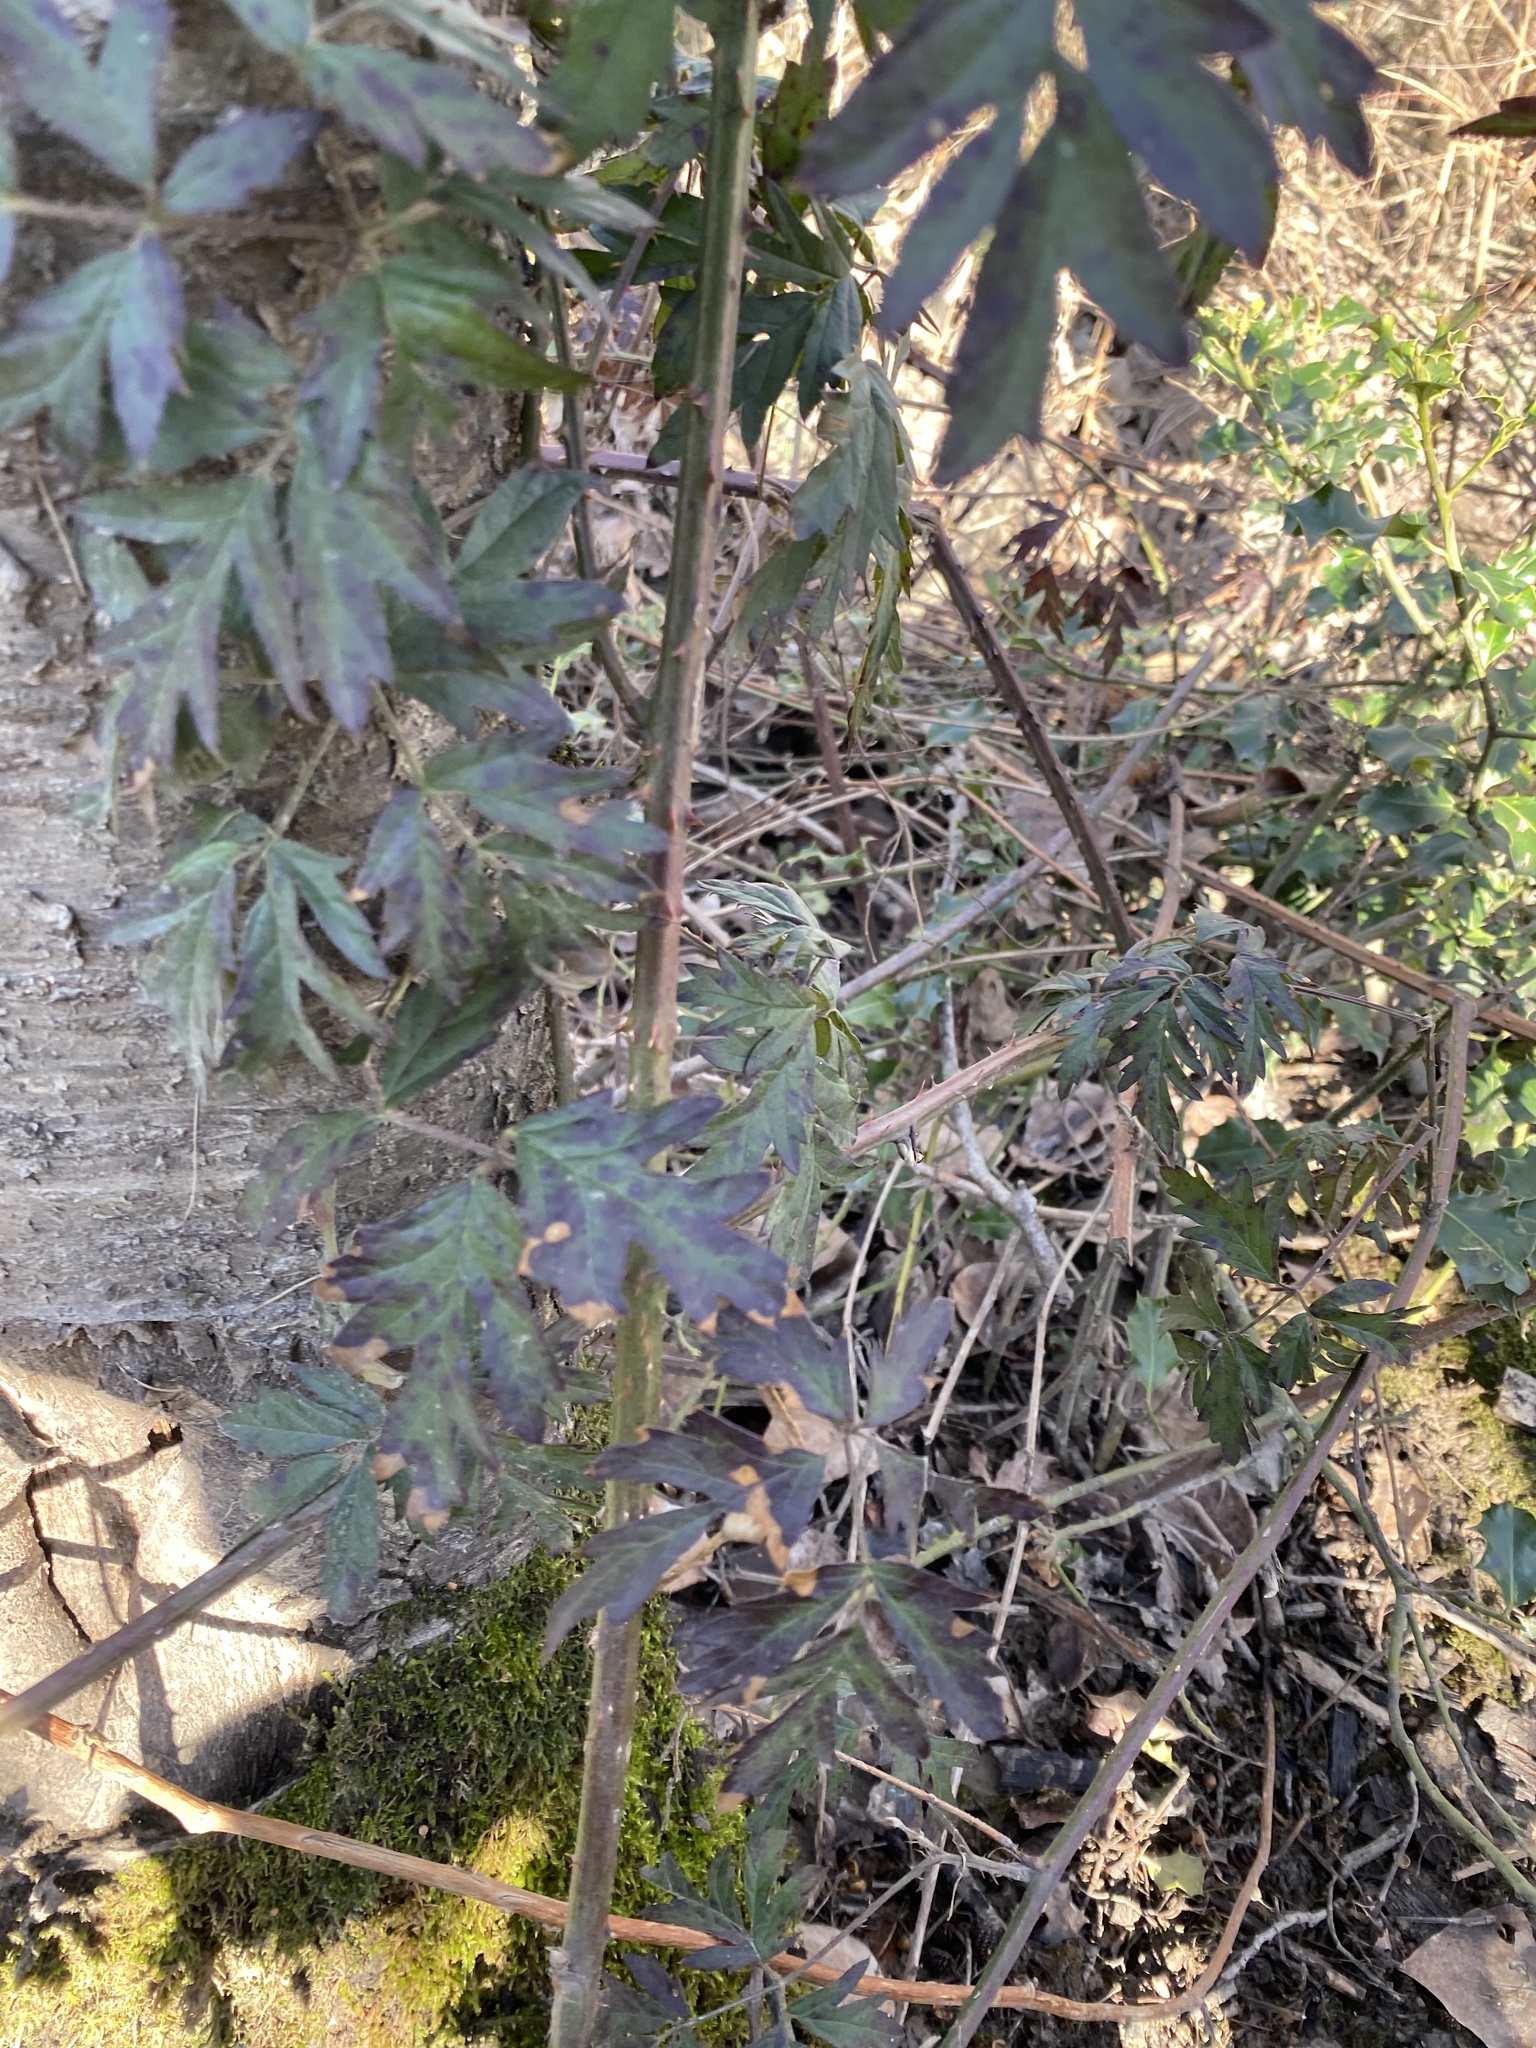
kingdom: Plantae
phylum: Tracheophyta
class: Magnoliopsida
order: Rosales
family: Rosaceae
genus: Rubus
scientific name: Rubus laciniatus
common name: Evergreen blackberry
